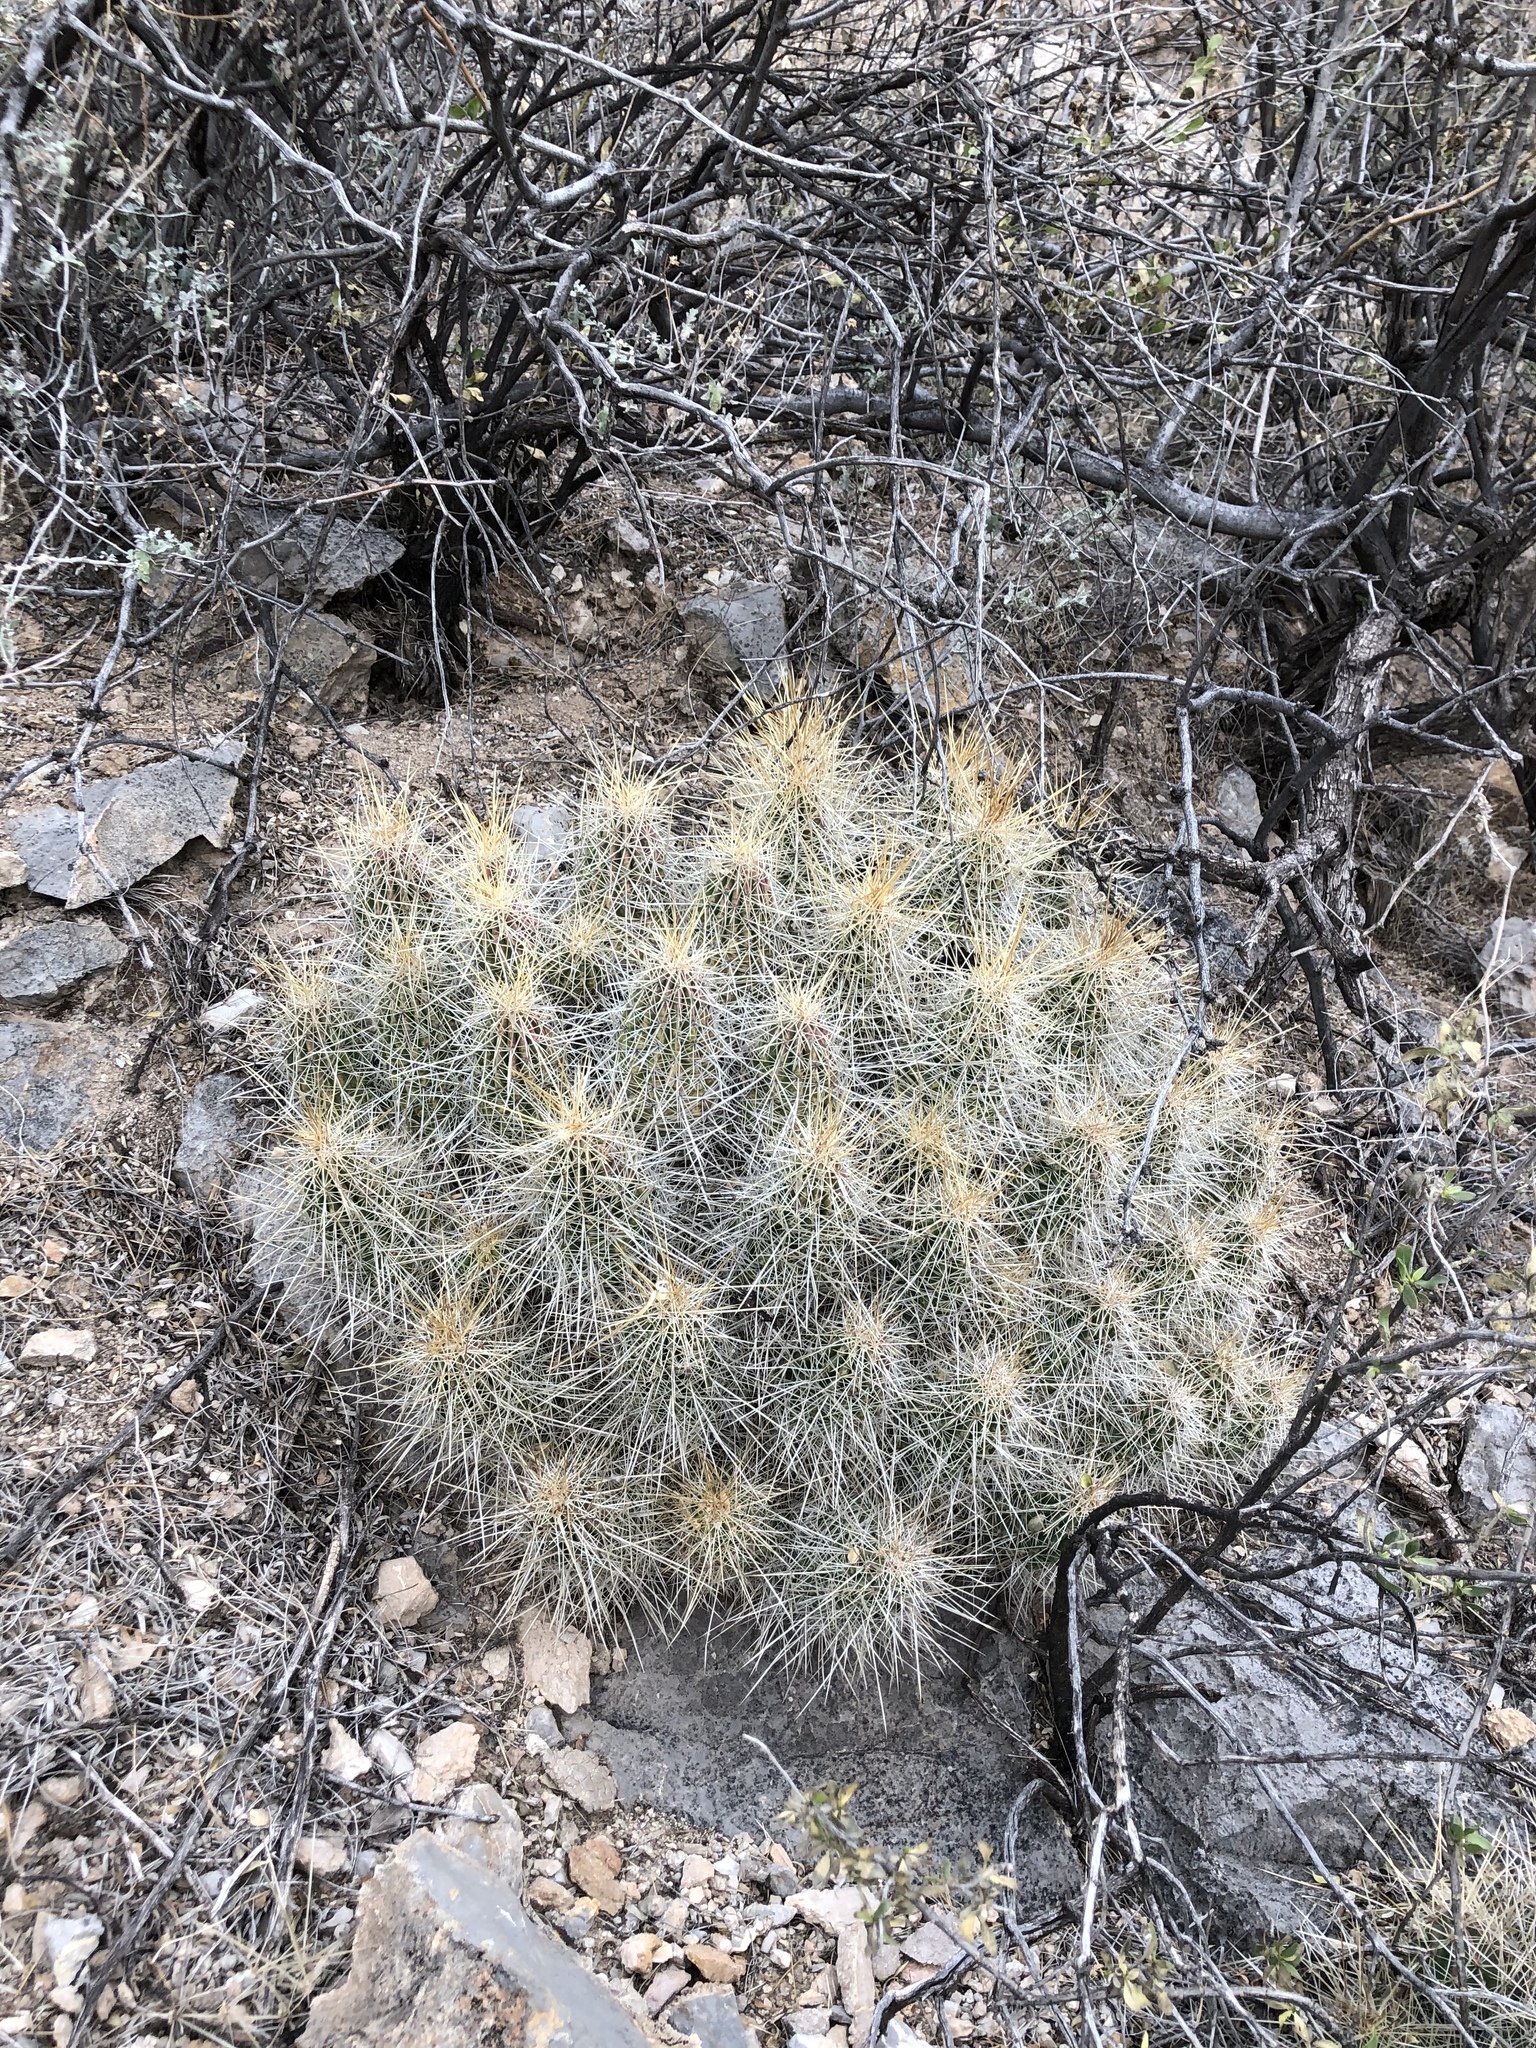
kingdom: Plantae
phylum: Tracheophyta
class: Magnoliopsida
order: Caryophyllales
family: Cactaceae
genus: Echinocereus
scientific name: Echinocereus stramineus
